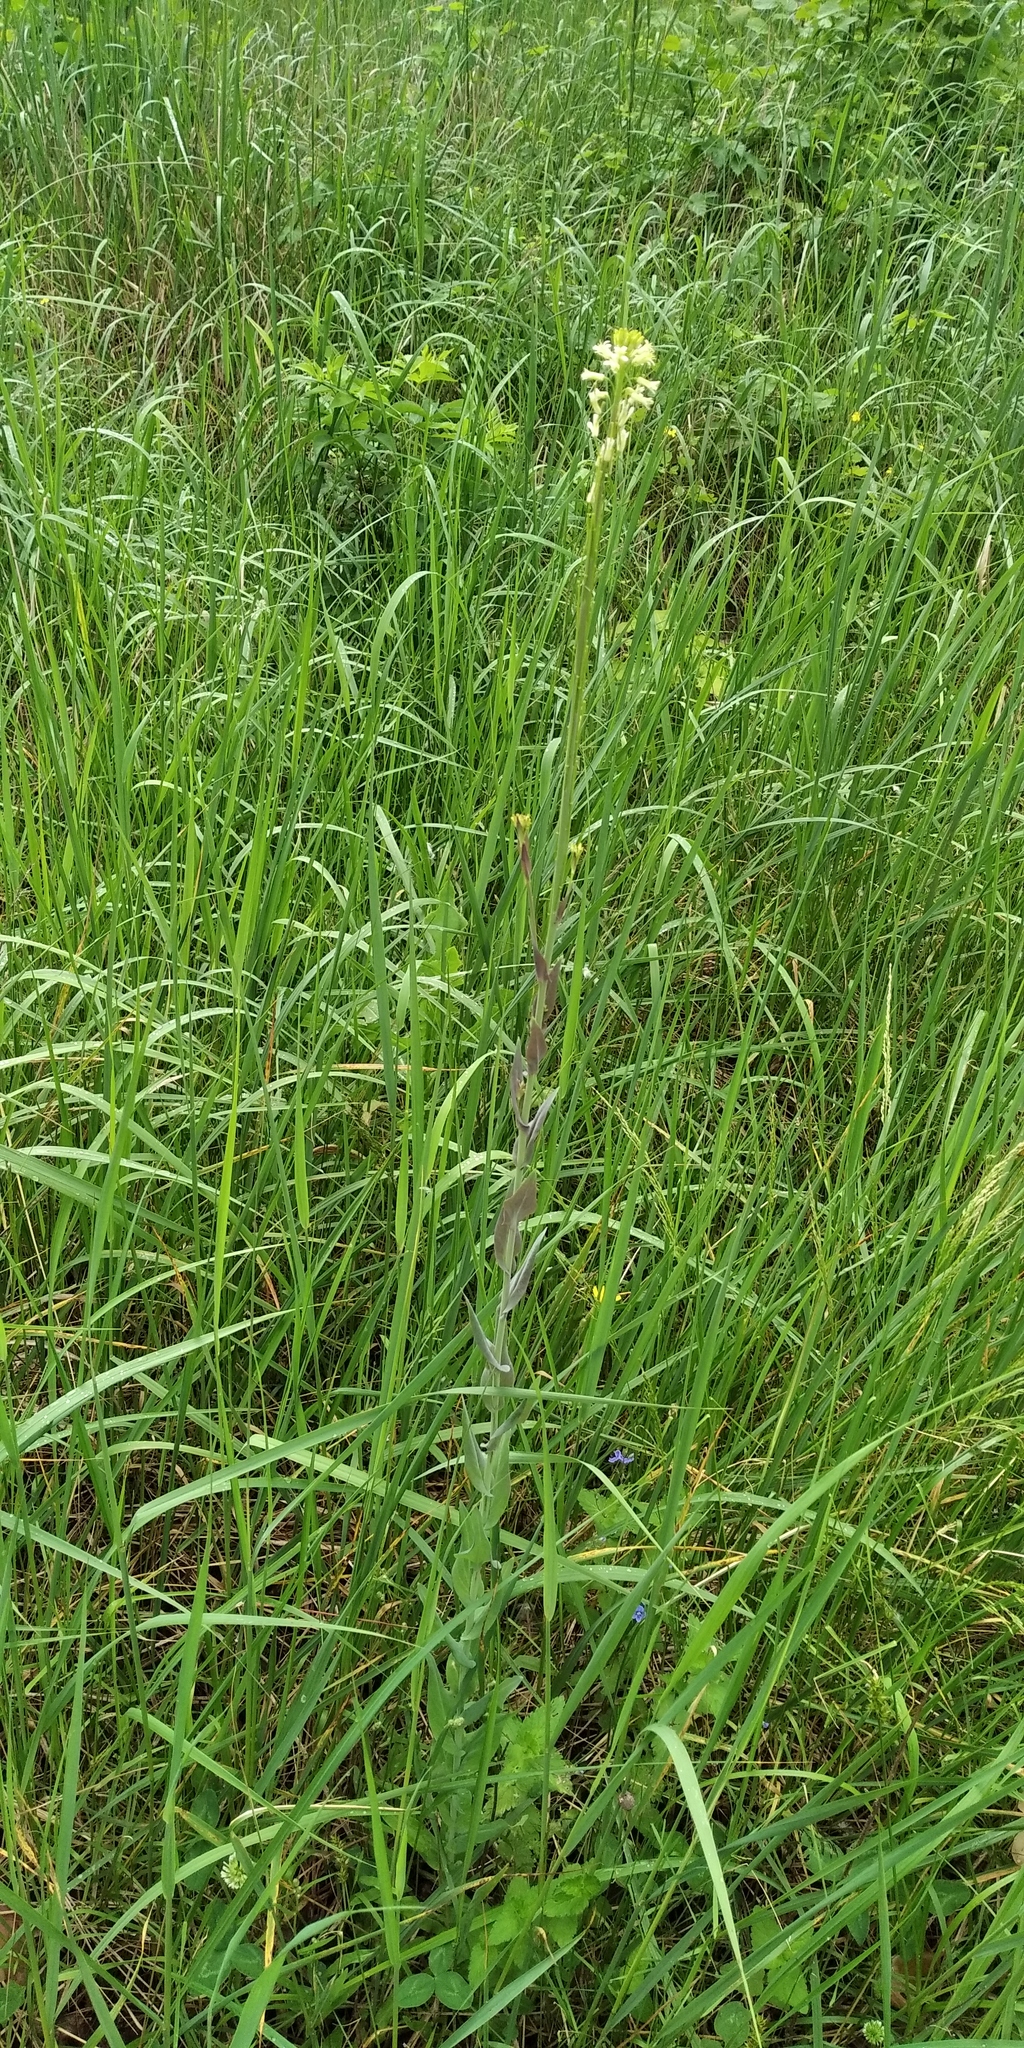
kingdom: Plantae
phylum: Tracheophyta
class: Magnoliopsida
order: Brassicales
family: Brassicaceae
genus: Turritis
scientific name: Turritis glabra
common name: Tower rockcress
